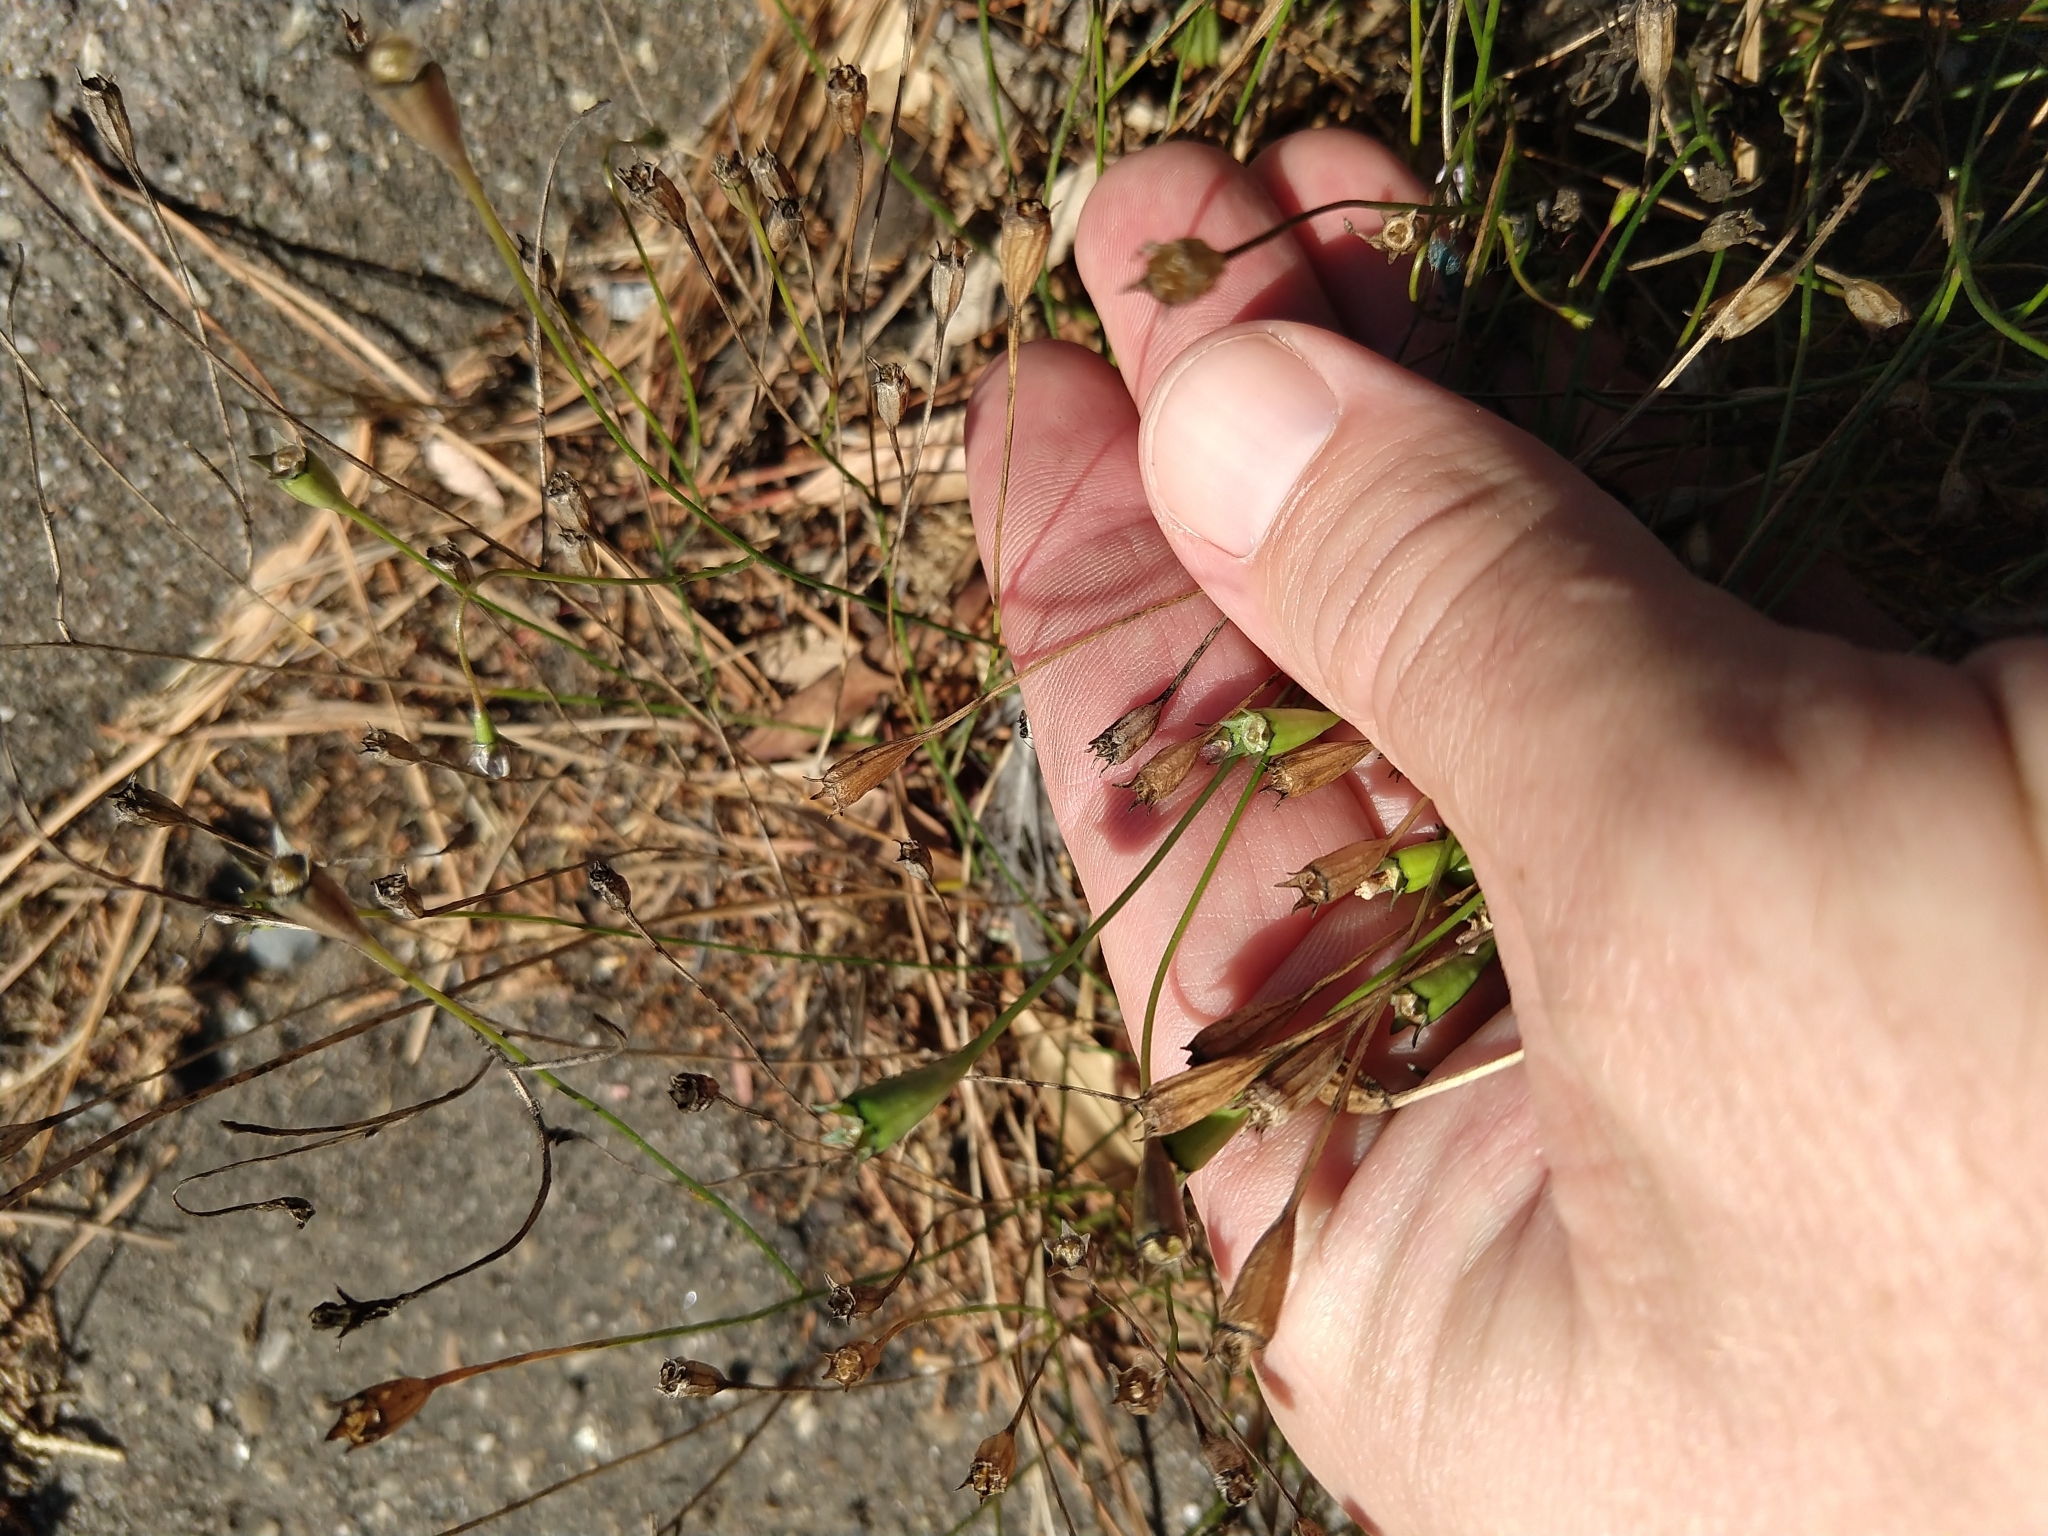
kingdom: Plantae
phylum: Tracheophyta
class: Magnoliopsida
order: Asterales
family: Campanulaceae
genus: Wahlenbergia
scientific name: Wahlenbergia marginata
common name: Southern rockbell
